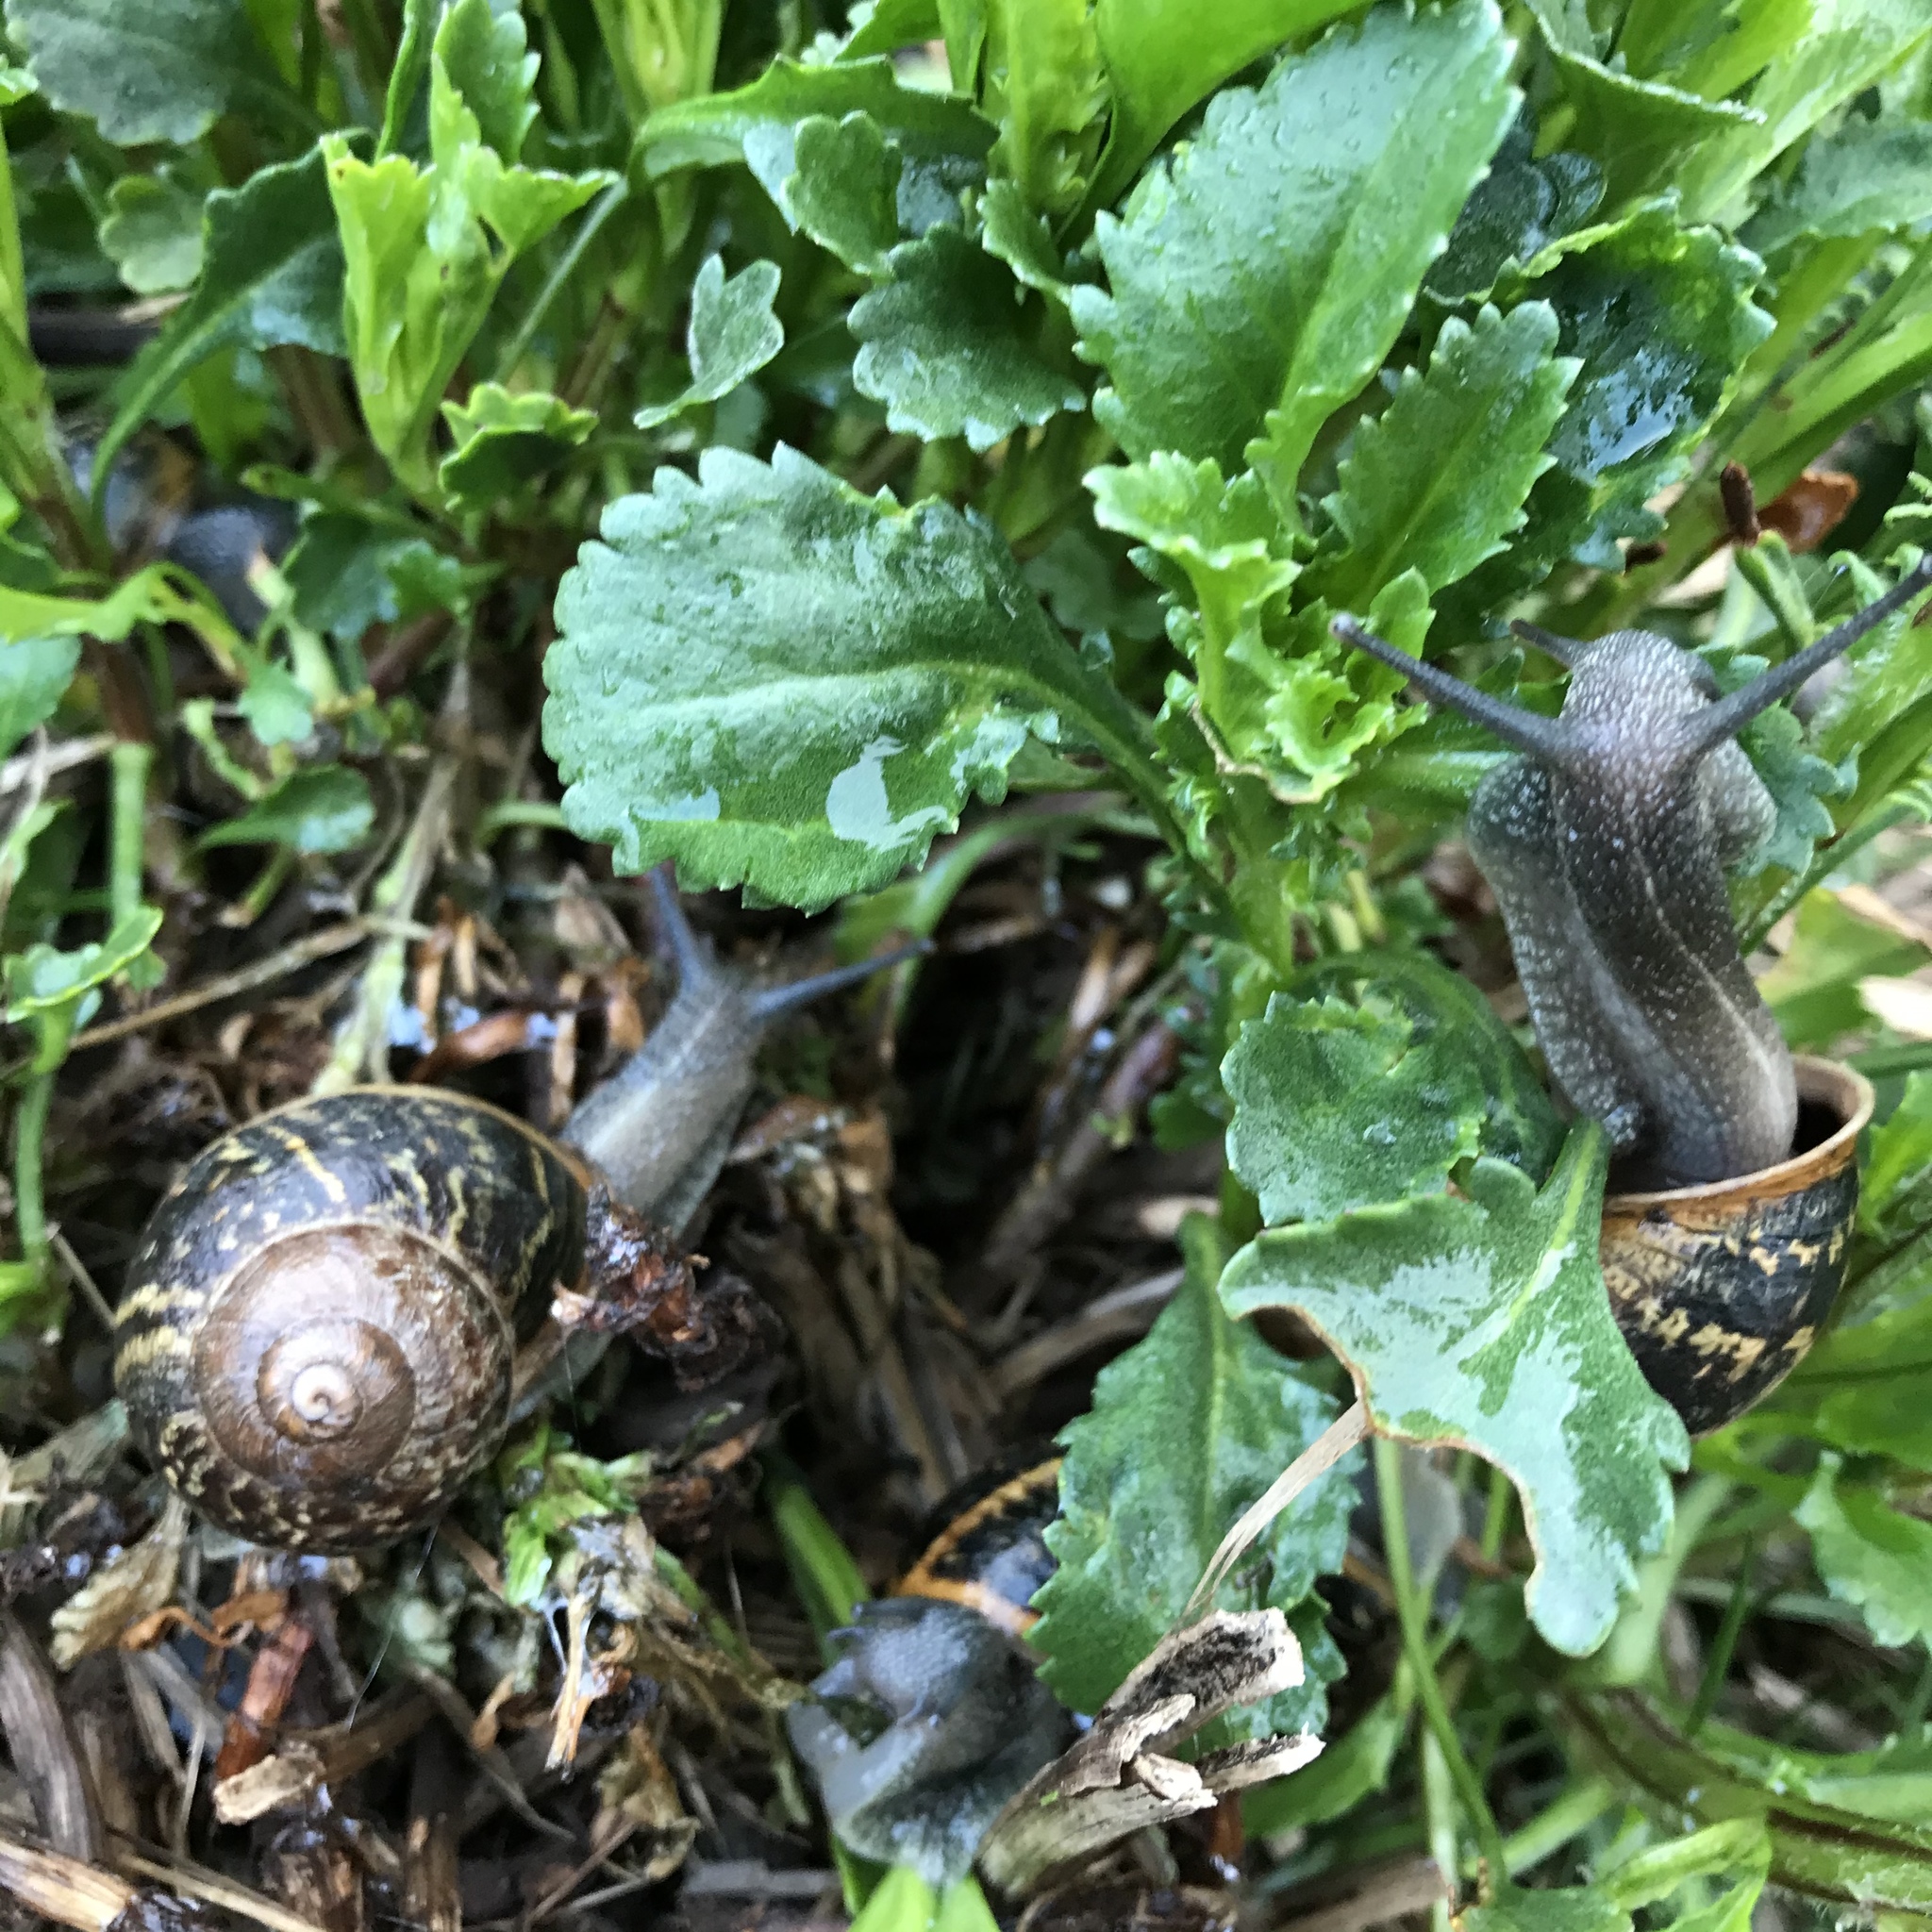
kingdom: Animalia
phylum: Mollusca
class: Gastropoda
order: Stylommatophora
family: Helicidae
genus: Cornu
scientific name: Cornu aspersum
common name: Brown garden snail
